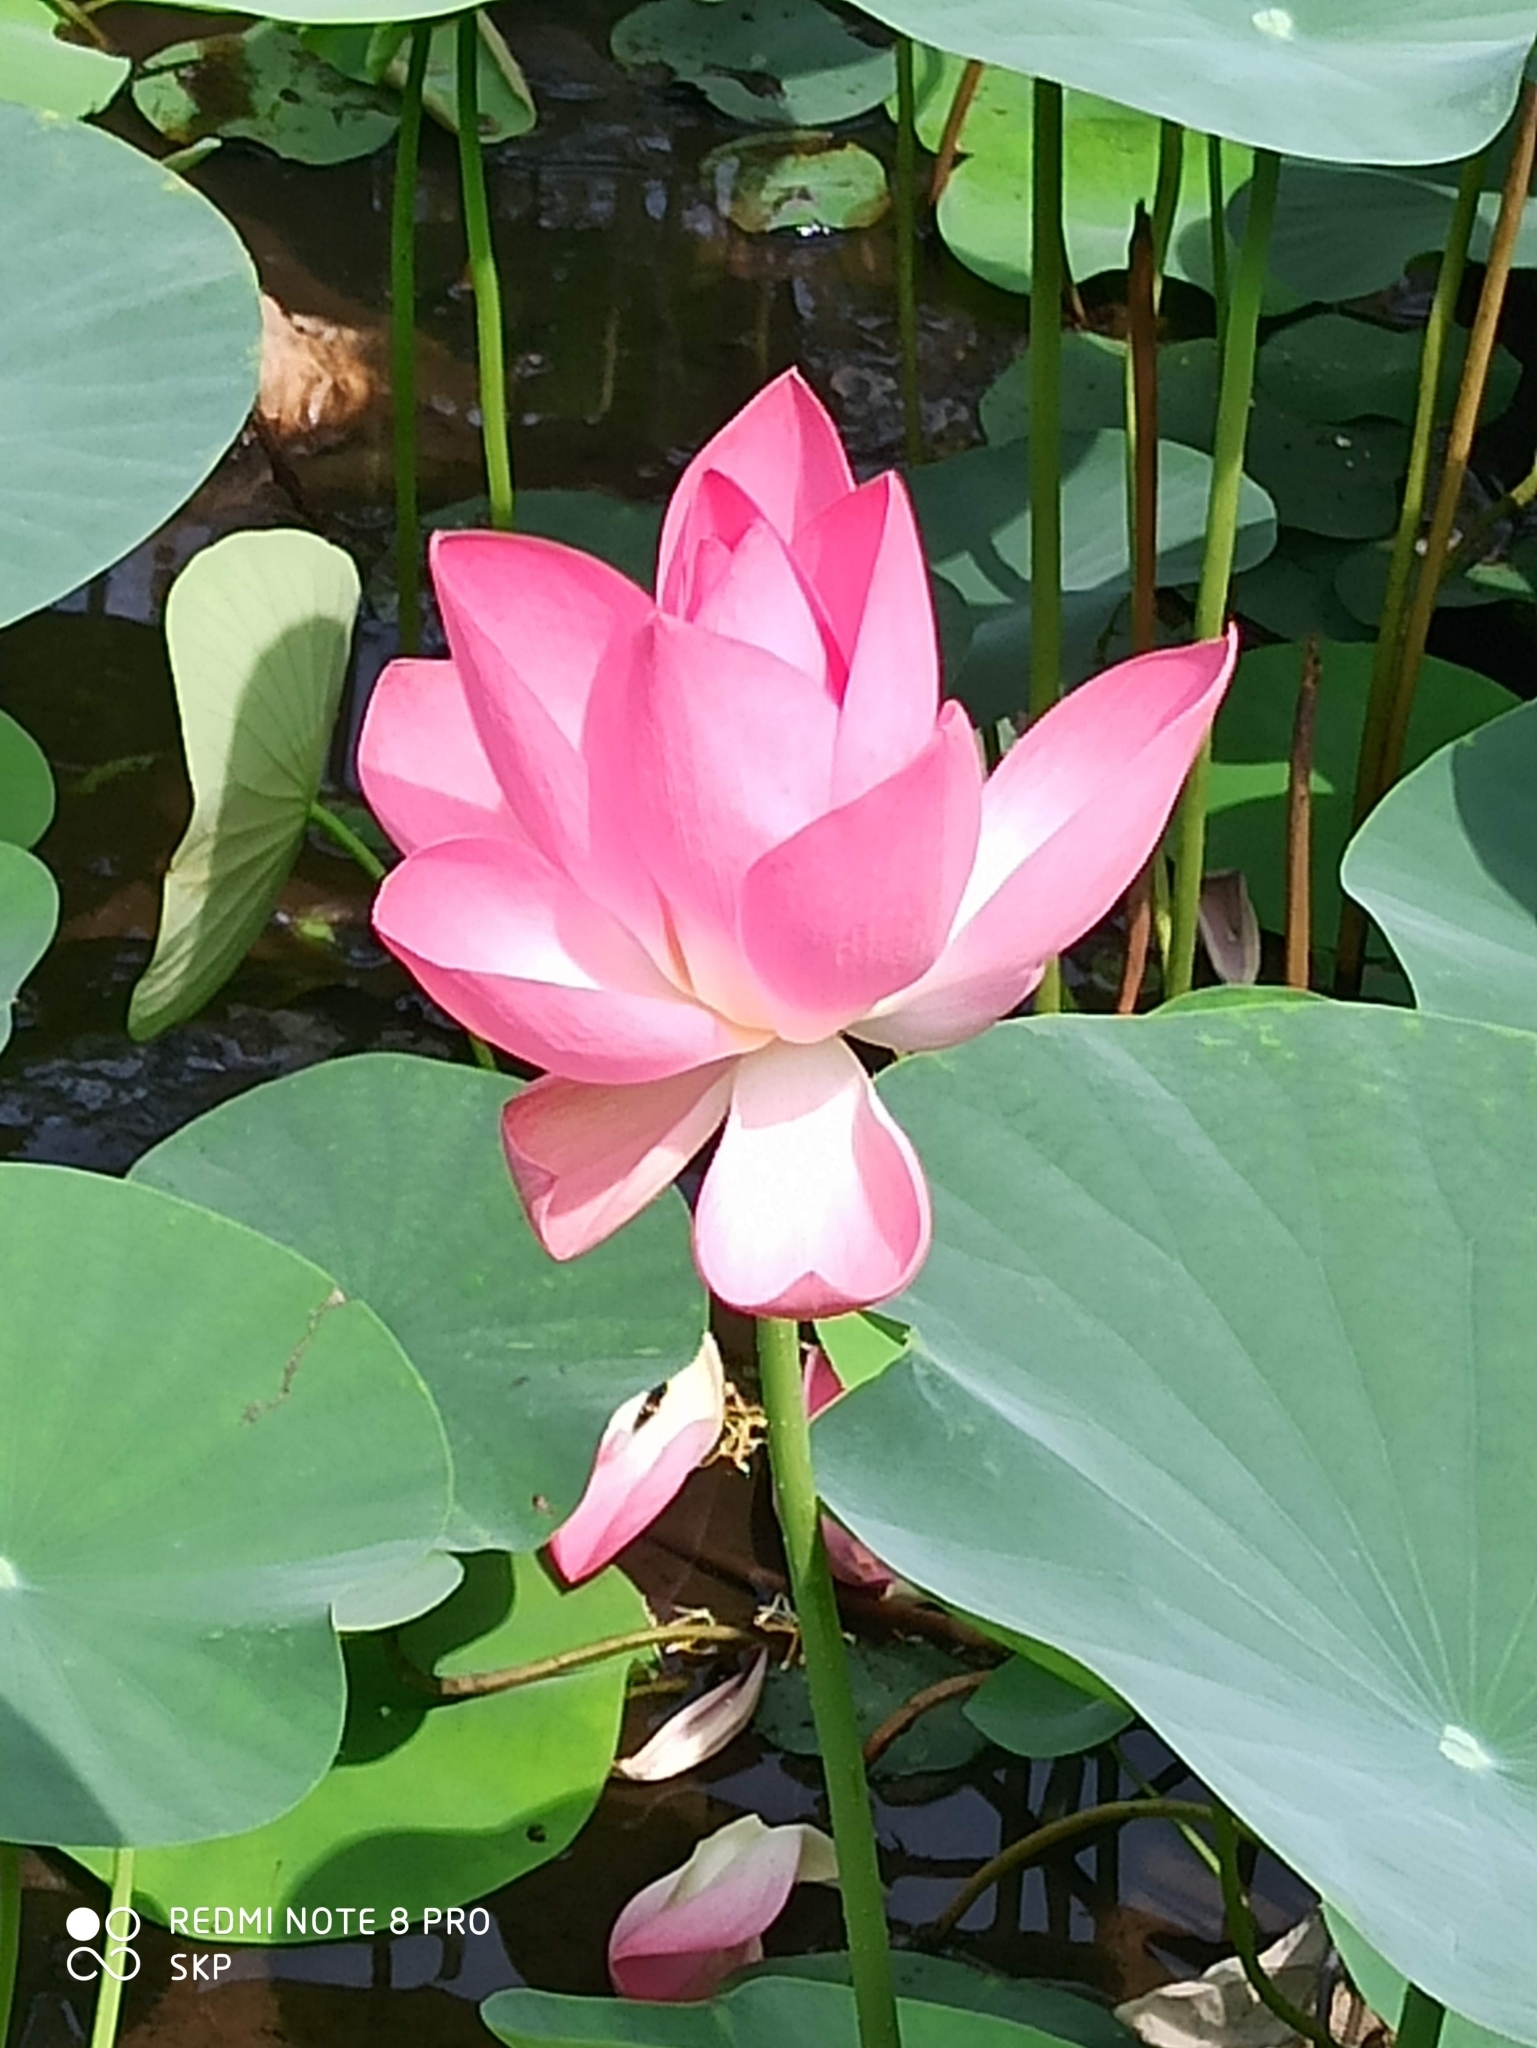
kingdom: Plantae
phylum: Tracheophyta
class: Magnoliopsida
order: Proteales
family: Nelumbonaceae
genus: Nelumbo
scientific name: Nelumbo nucifera
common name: Sacred lotus
